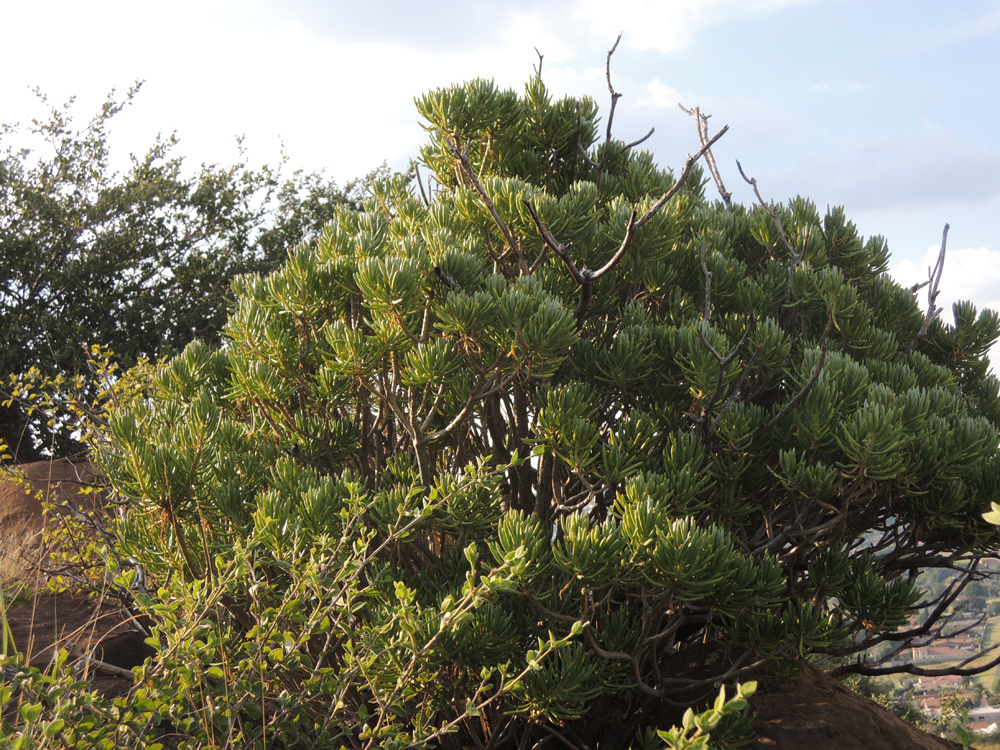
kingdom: Plantae
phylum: Tracheophyta
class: Magnoliopsida
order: Asterales
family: Asteraceae
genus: Kleinia
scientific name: Kleinia barbertonica
